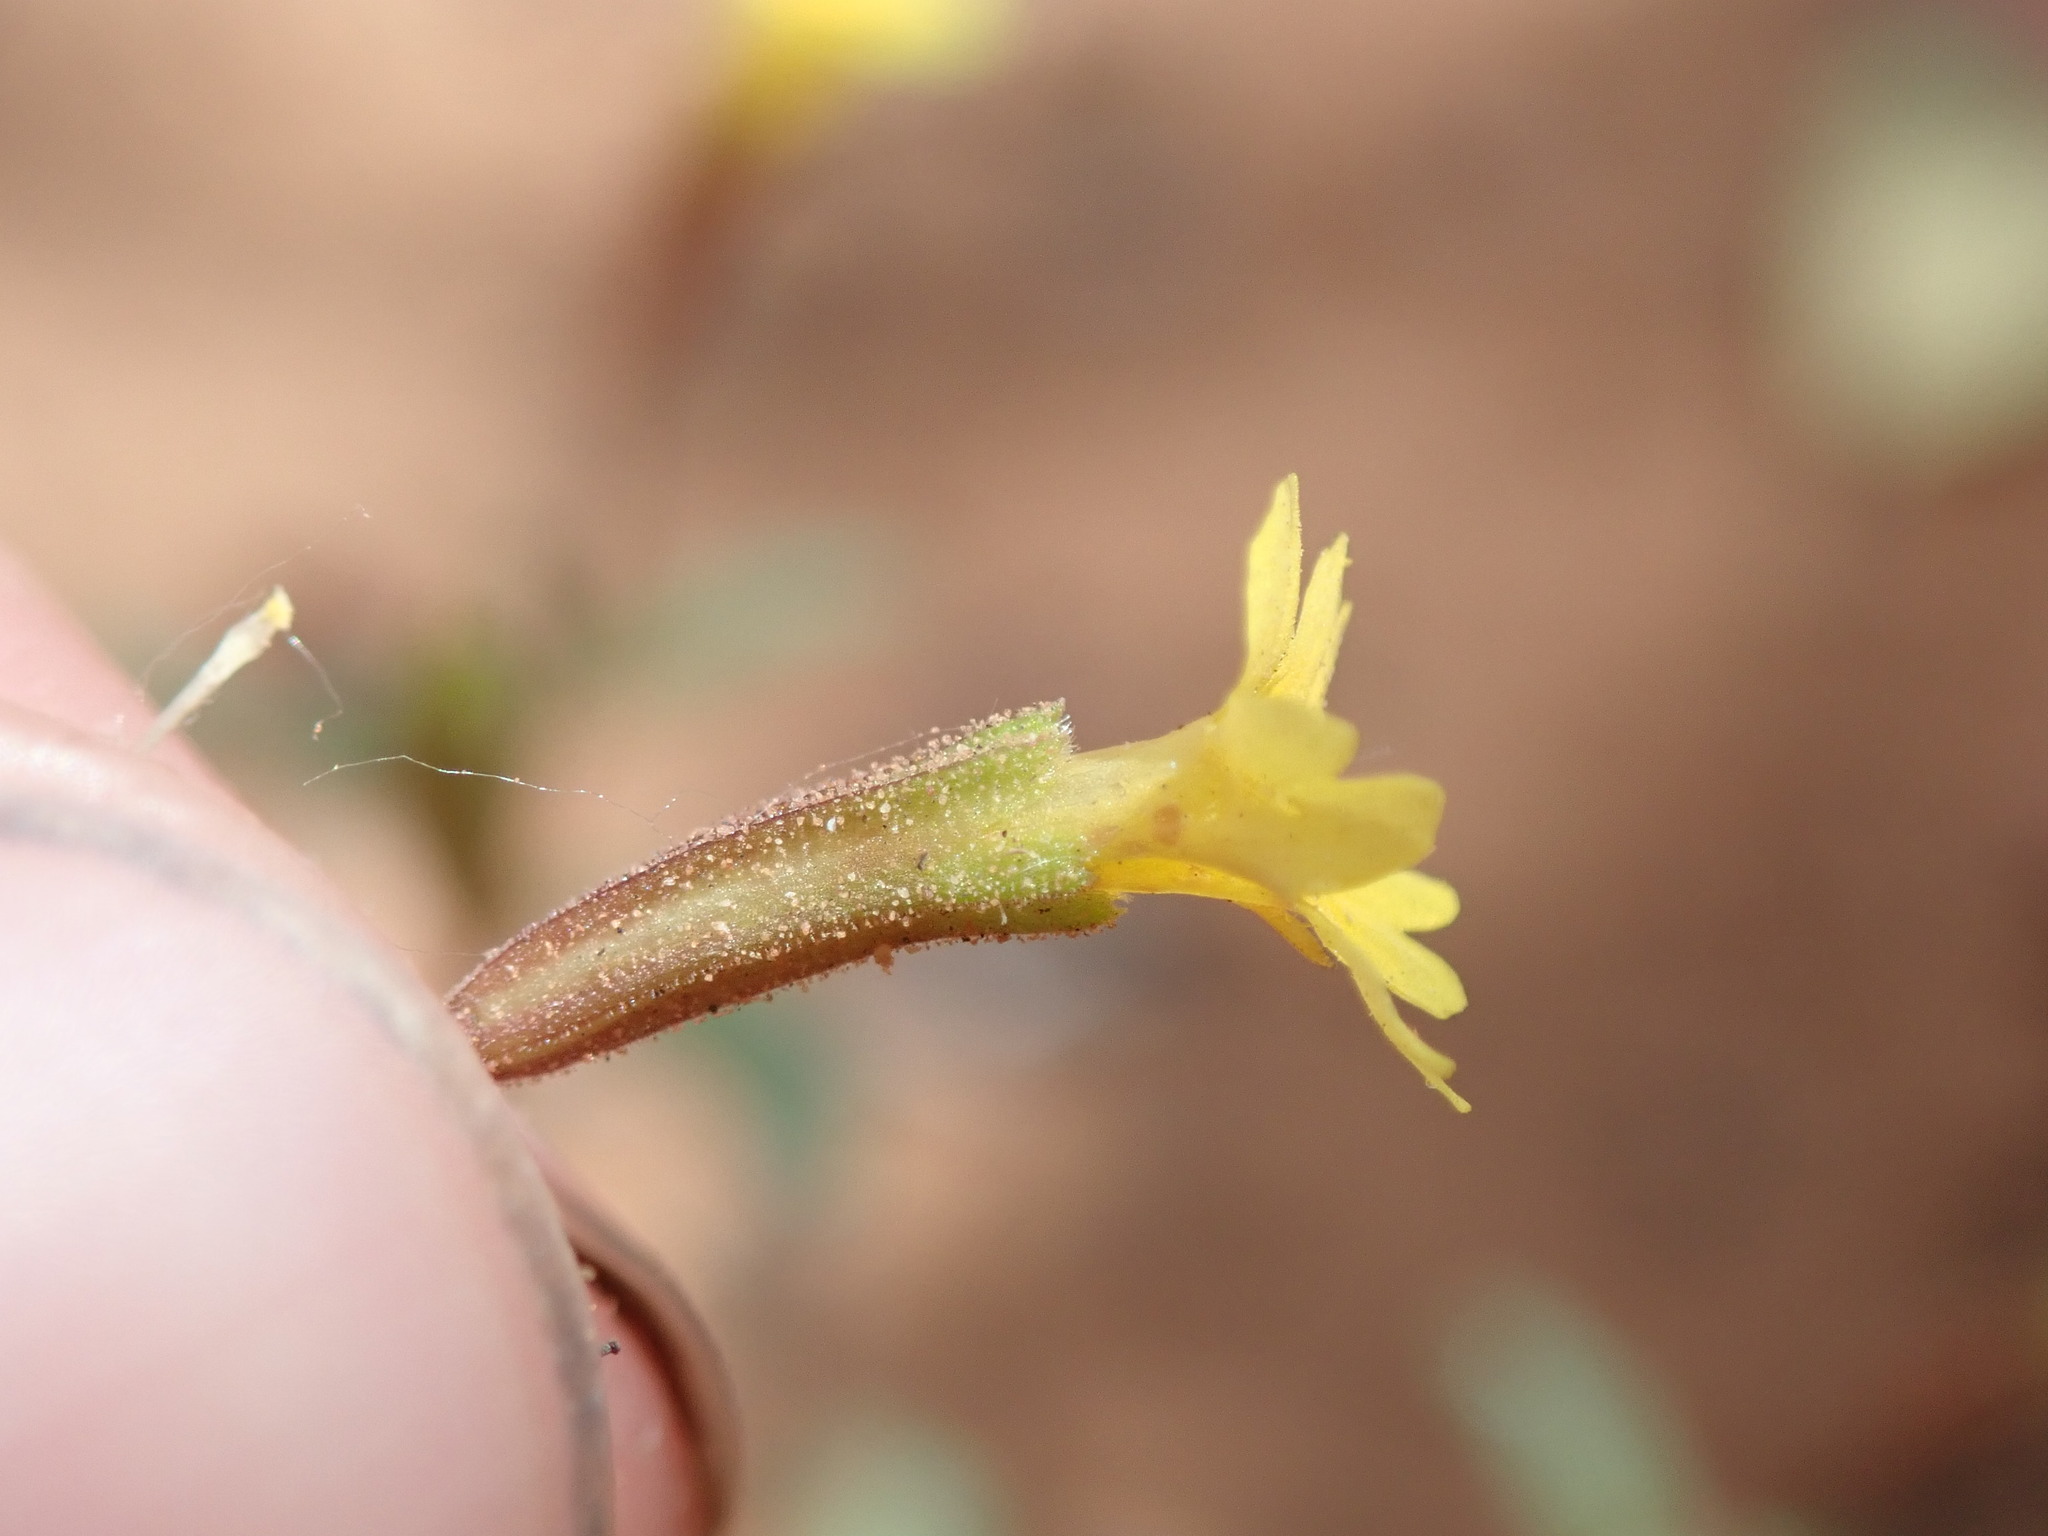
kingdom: Plantae
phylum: Tracheophyta
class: Magnoliopsida
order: Lamiales
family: Phrymaceae
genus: Erythranthe
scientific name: Erythranthe rubella
